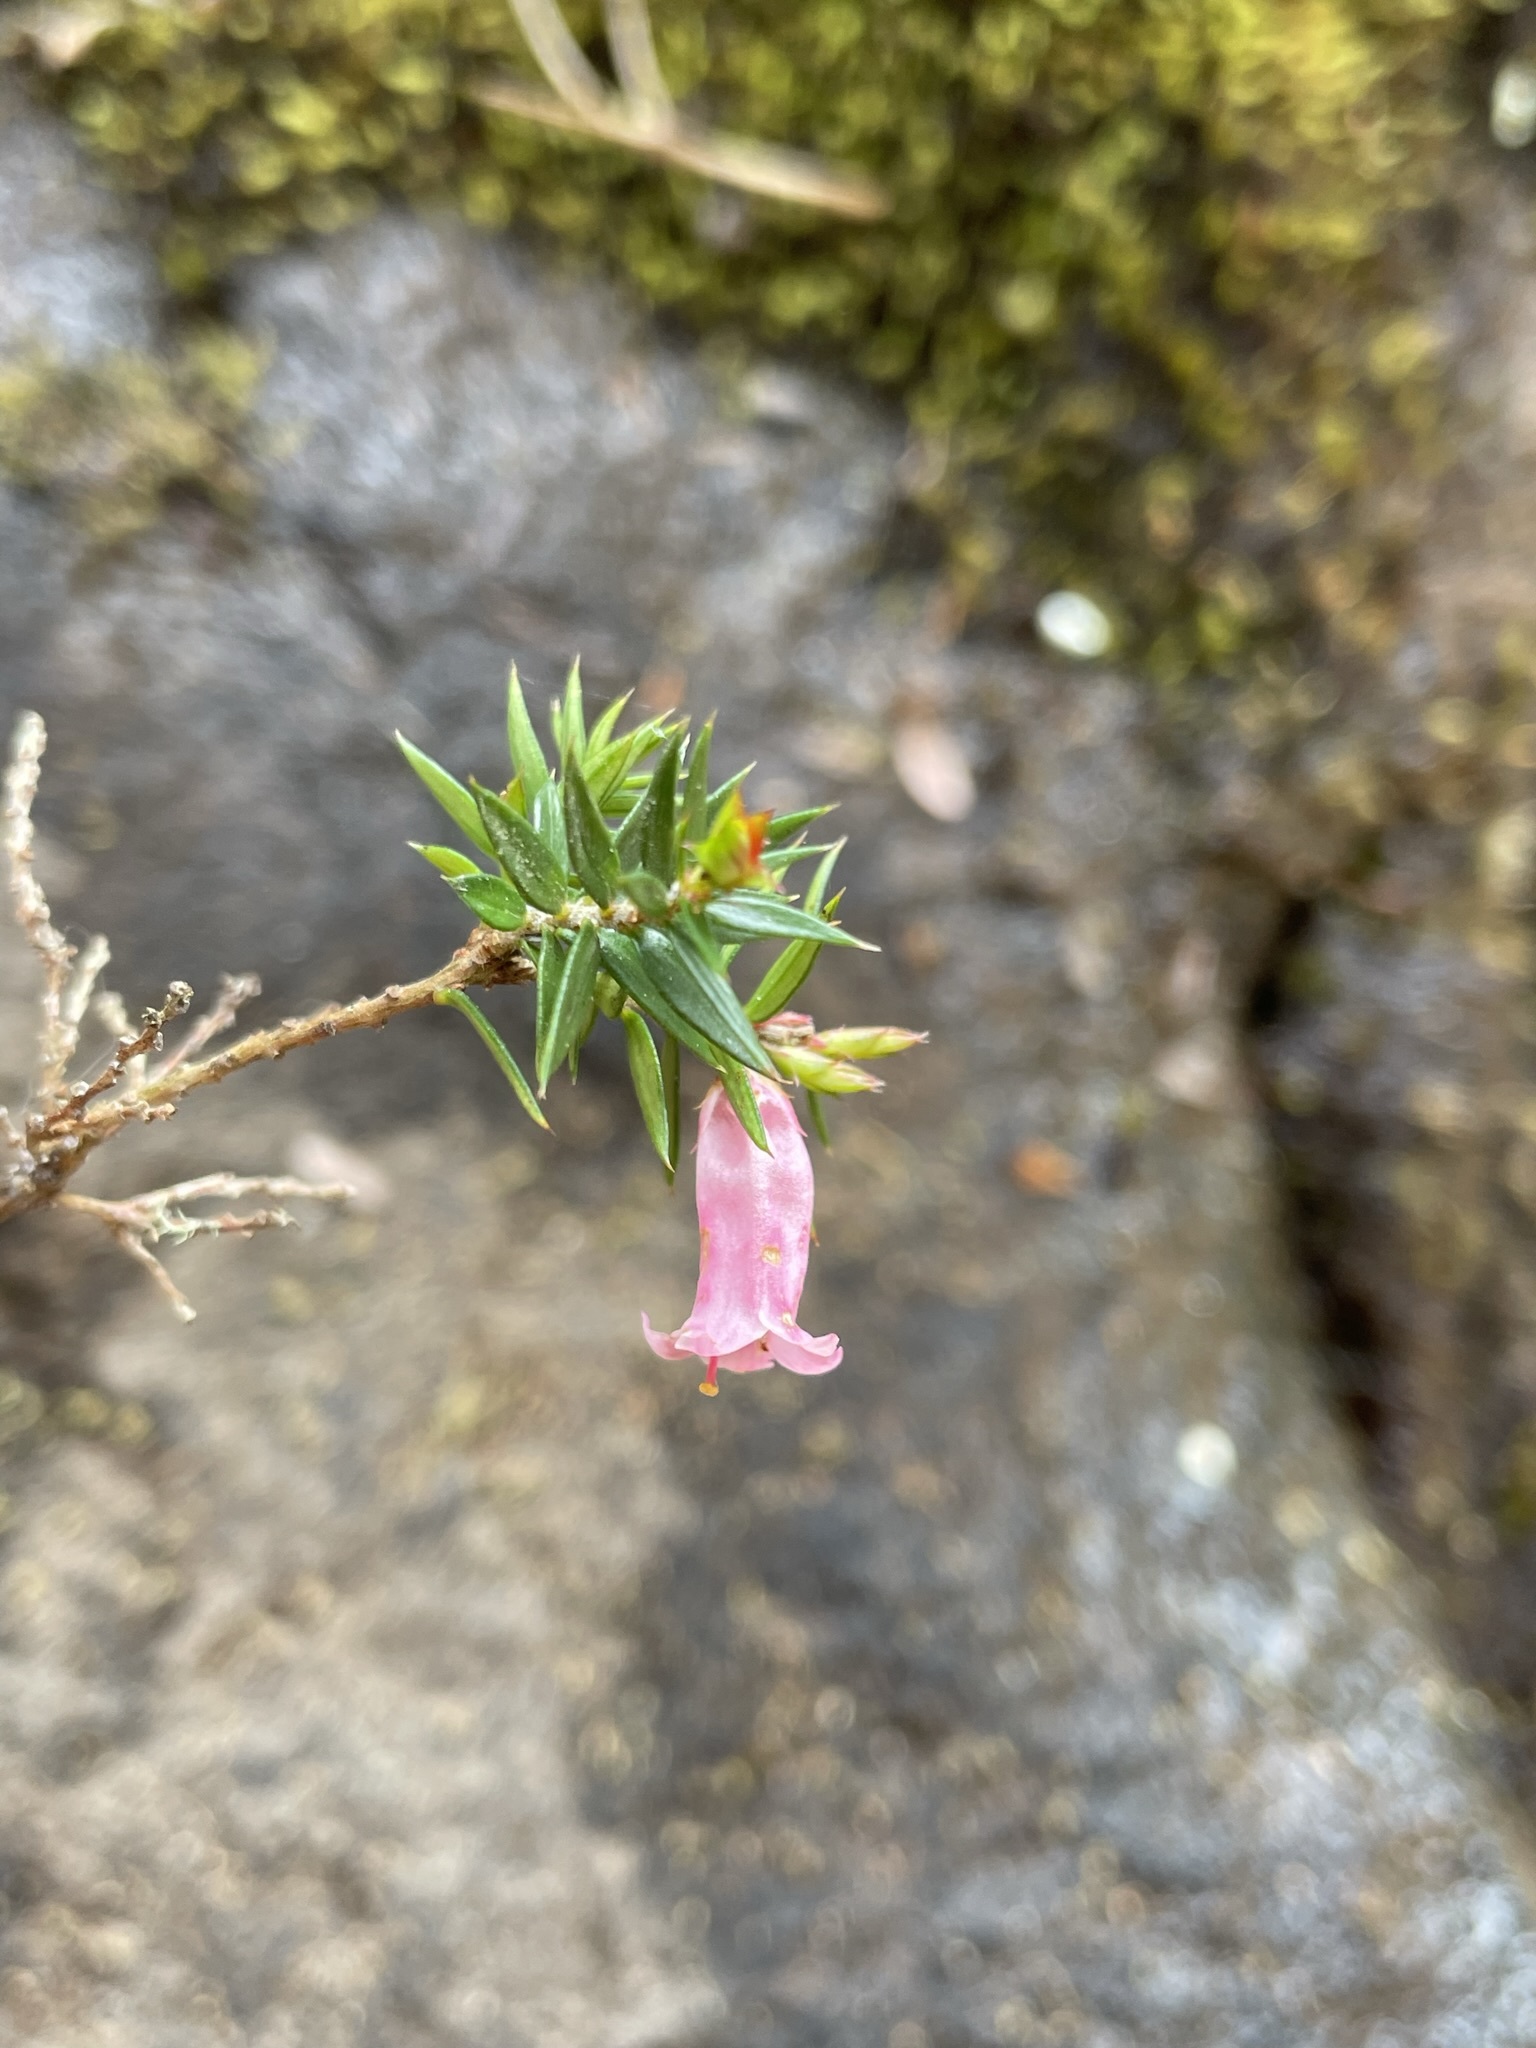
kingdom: Plantae
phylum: Tracheophyta
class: Magnoliopsida
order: Ericales
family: Ericaceae
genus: Epacris
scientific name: Epacris impressa
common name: Common-heath
